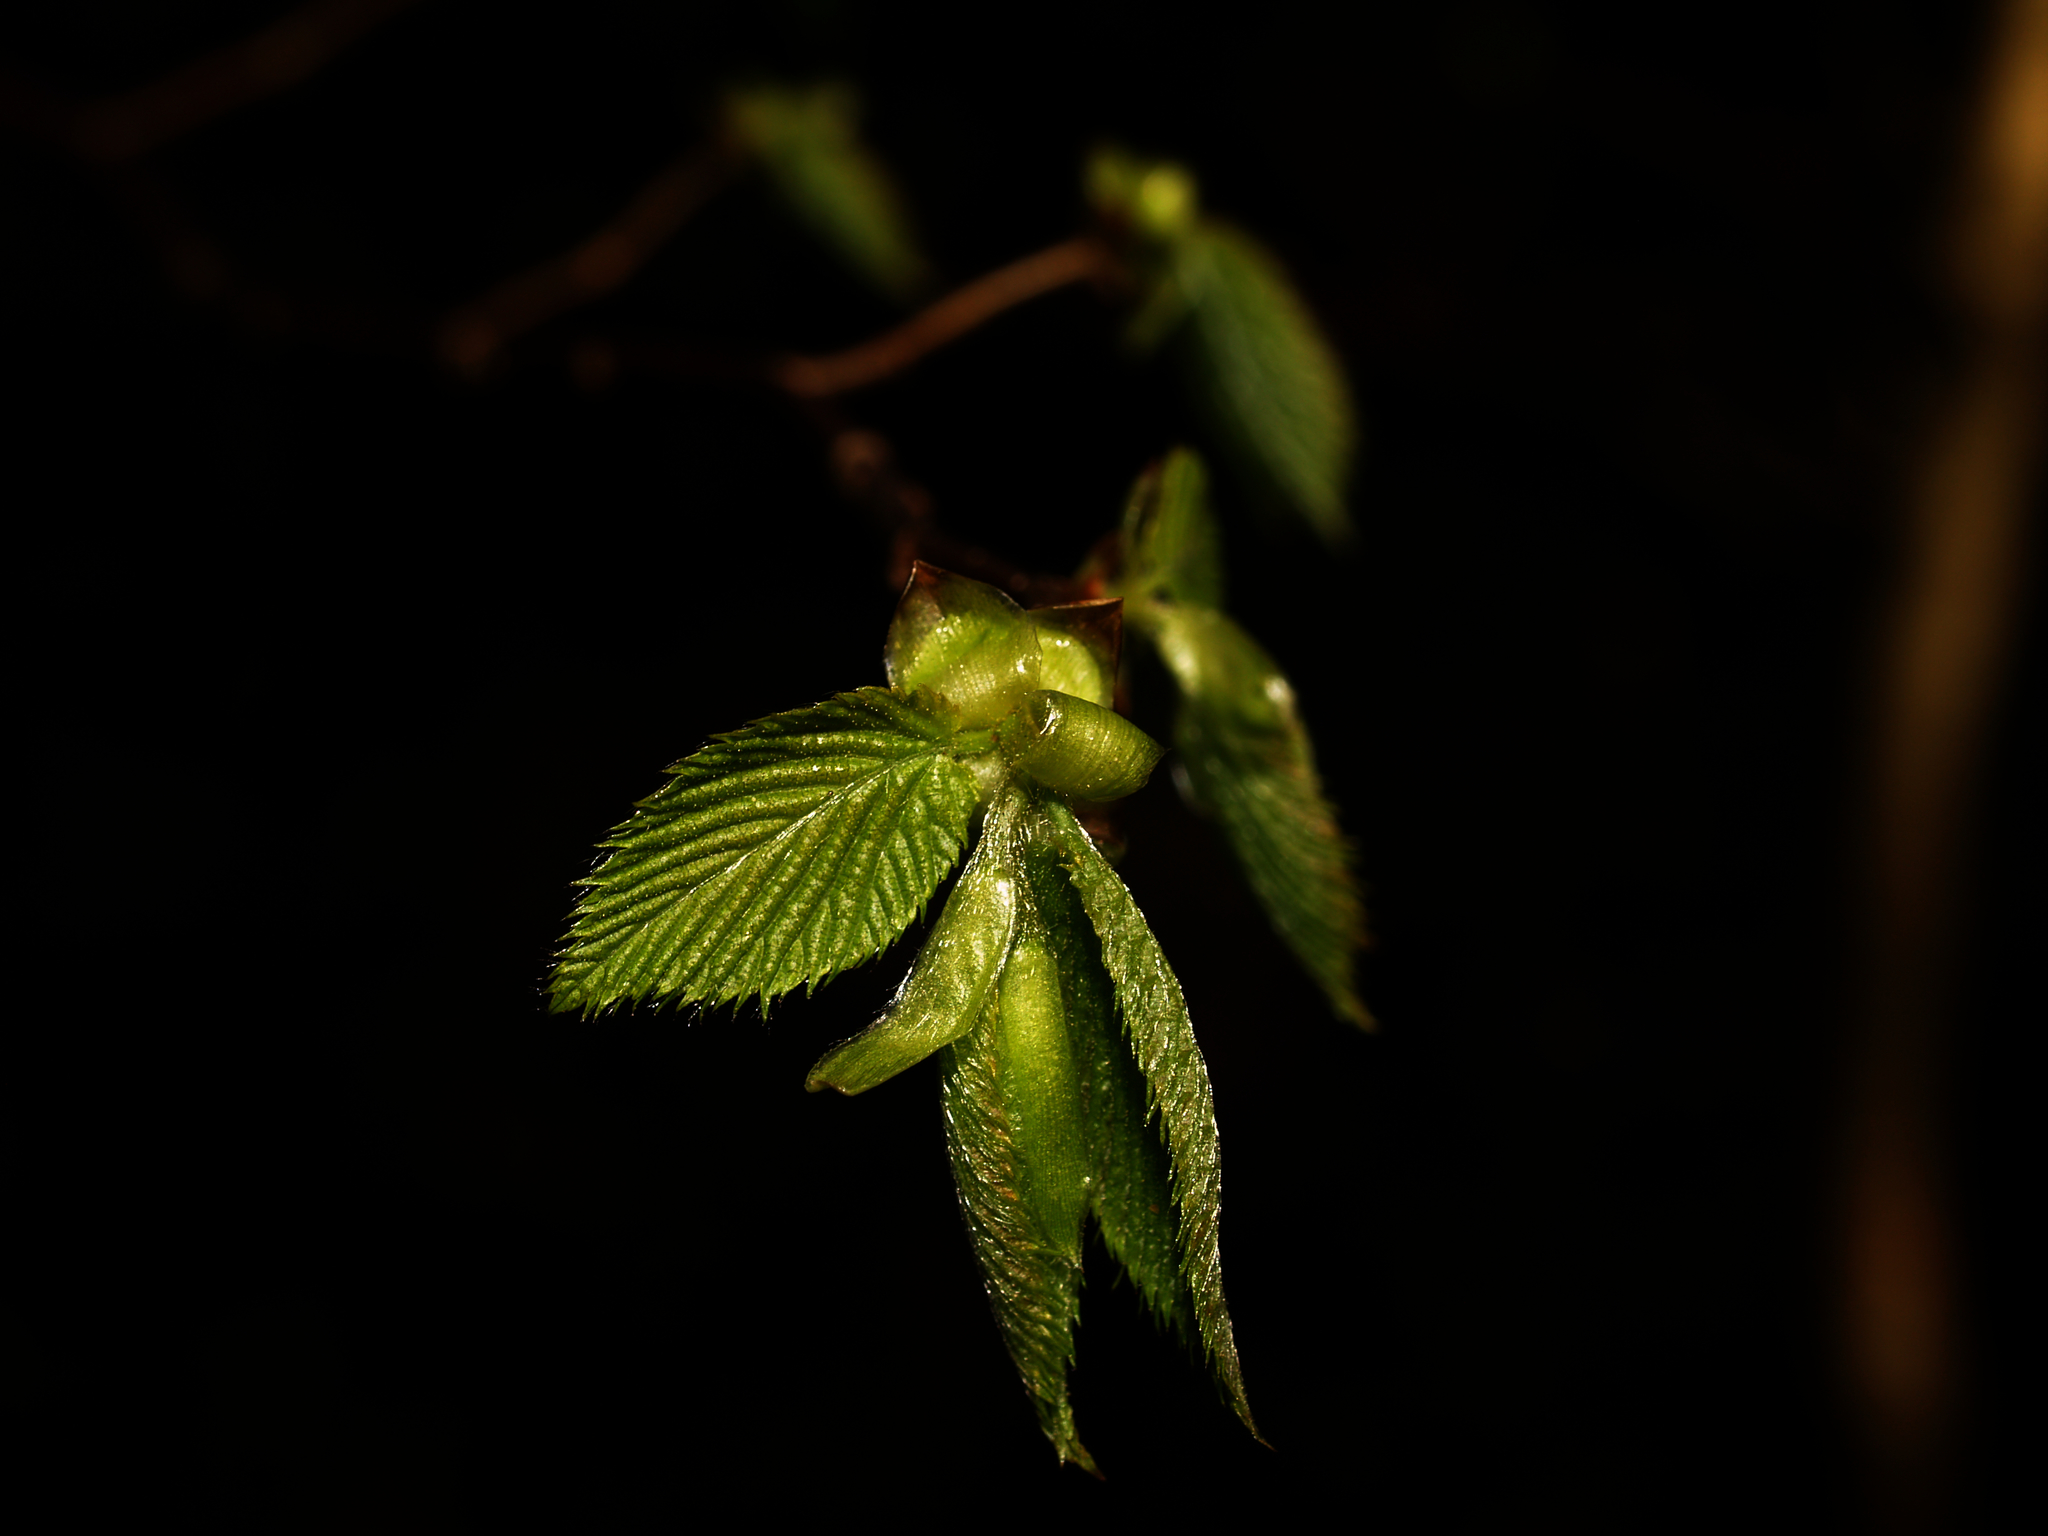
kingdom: Plantae
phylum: Tracheophyta
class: Magnoliopsida
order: Fagales
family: Fagaceae
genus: Fagus
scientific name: Fagus grandifolia
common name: American beech
